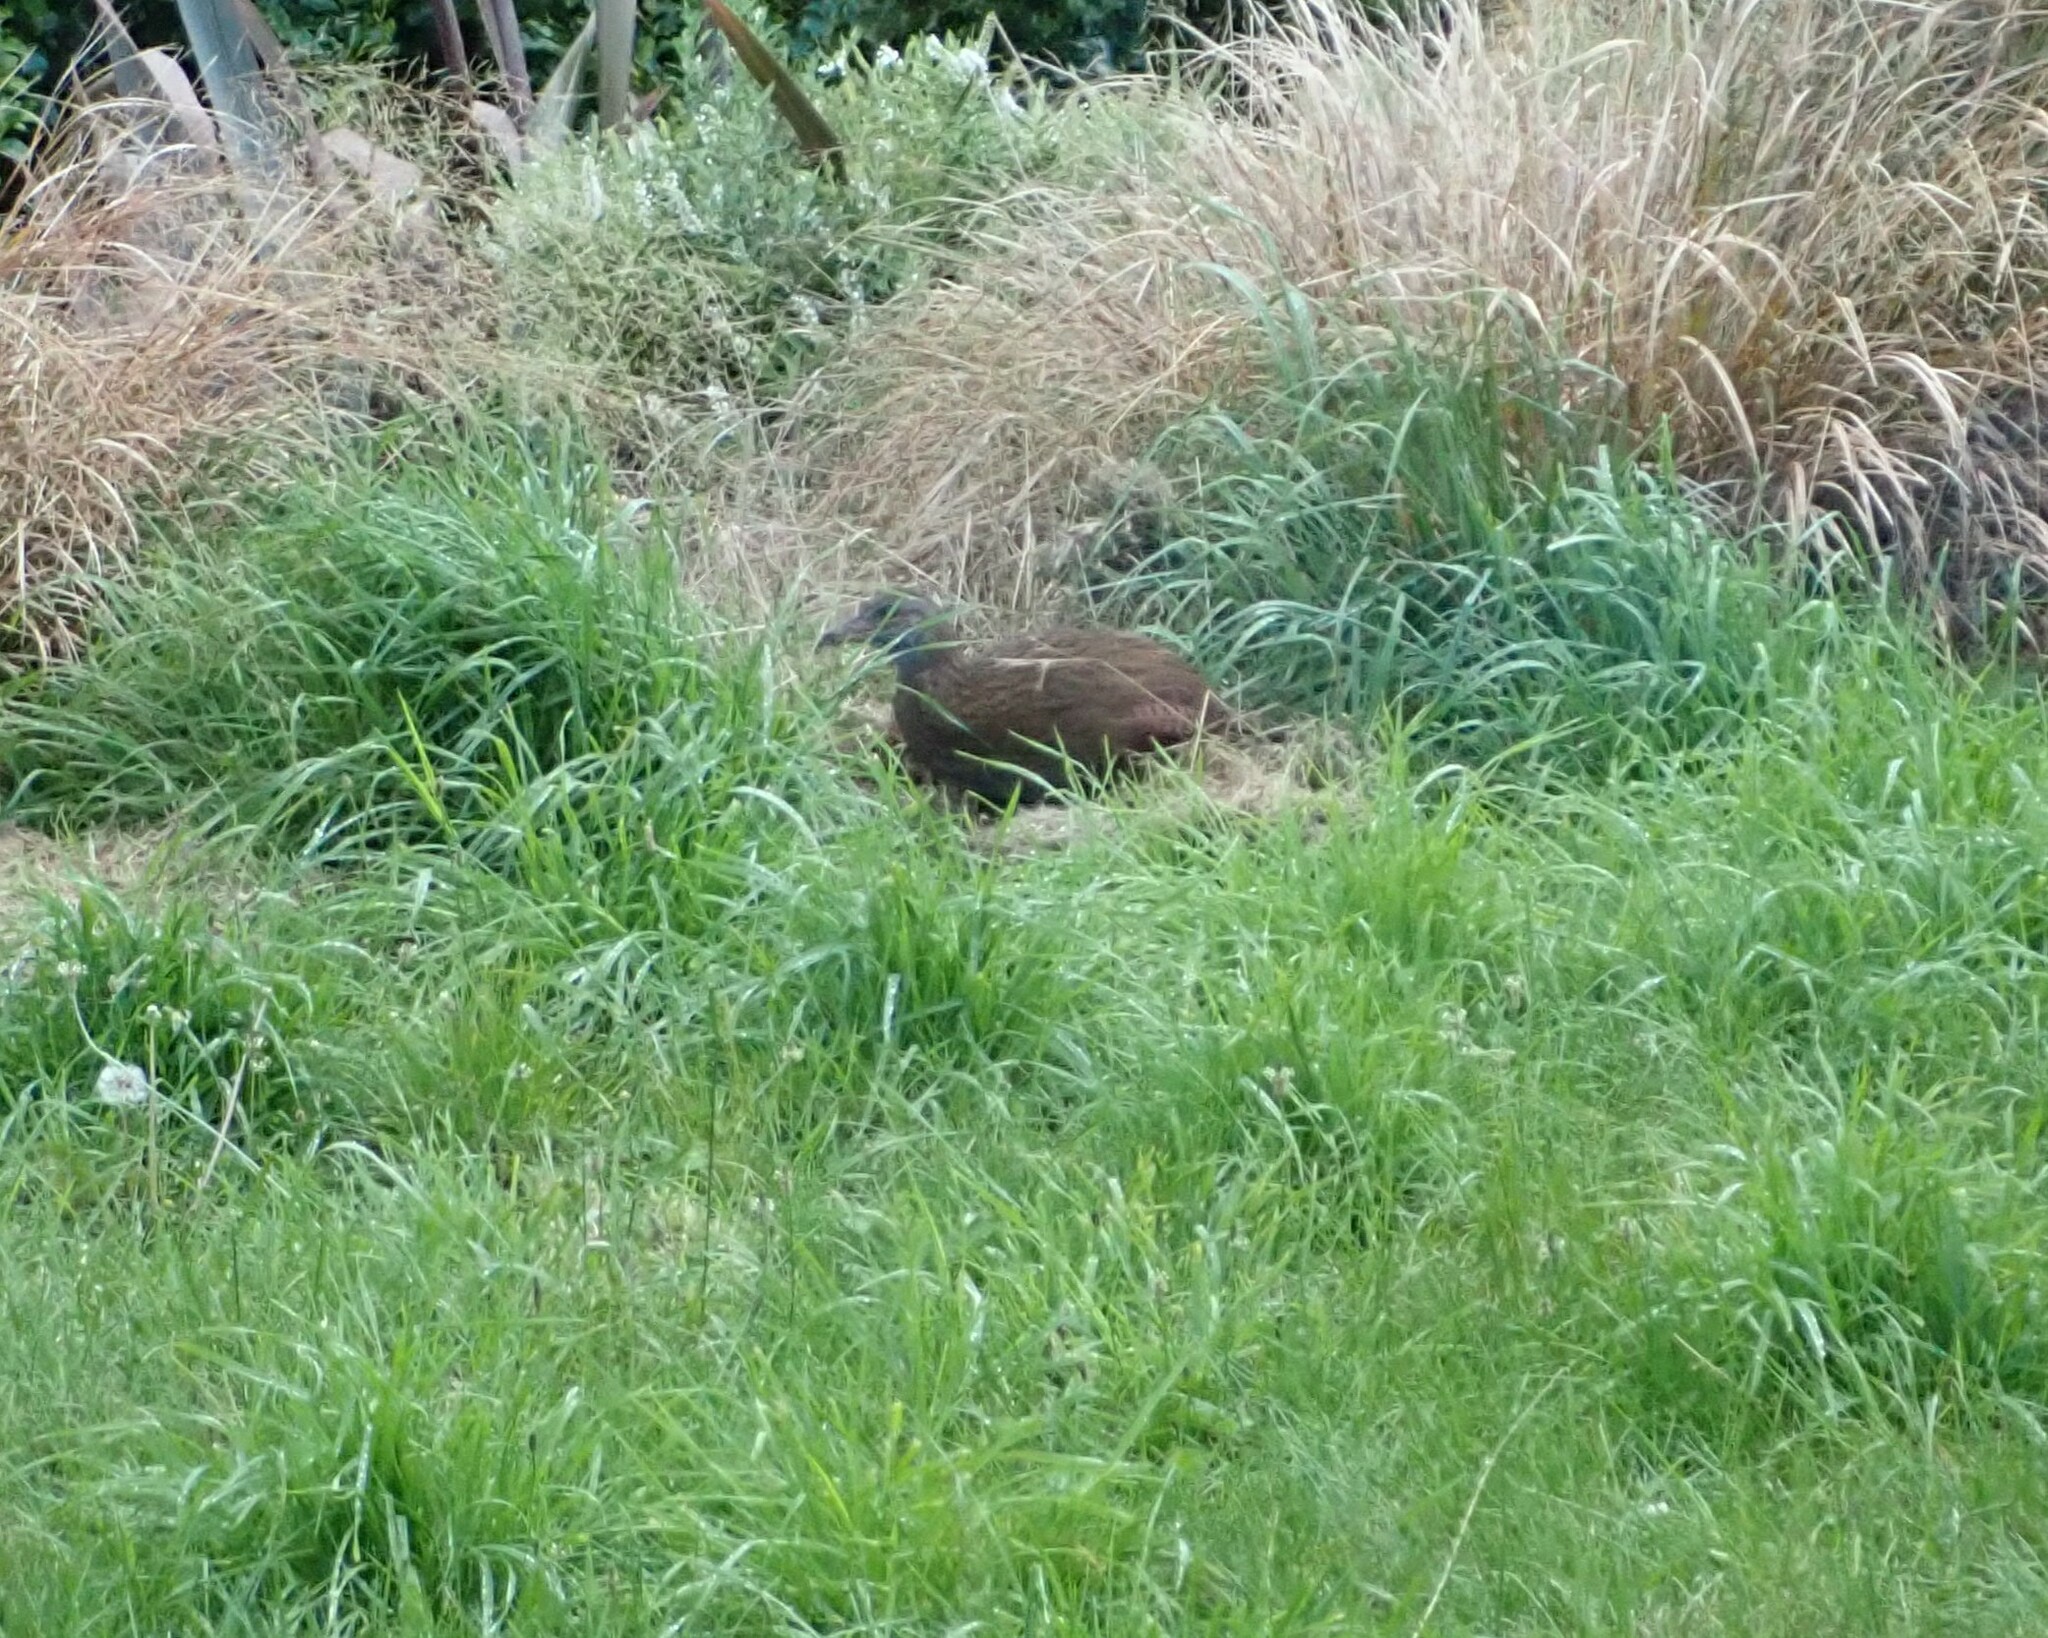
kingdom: Animalia
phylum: Chordata
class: Aves
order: Gruiformes
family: Rallidae
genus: Gallirallus
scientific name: Gallirallus australis
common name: Weka
